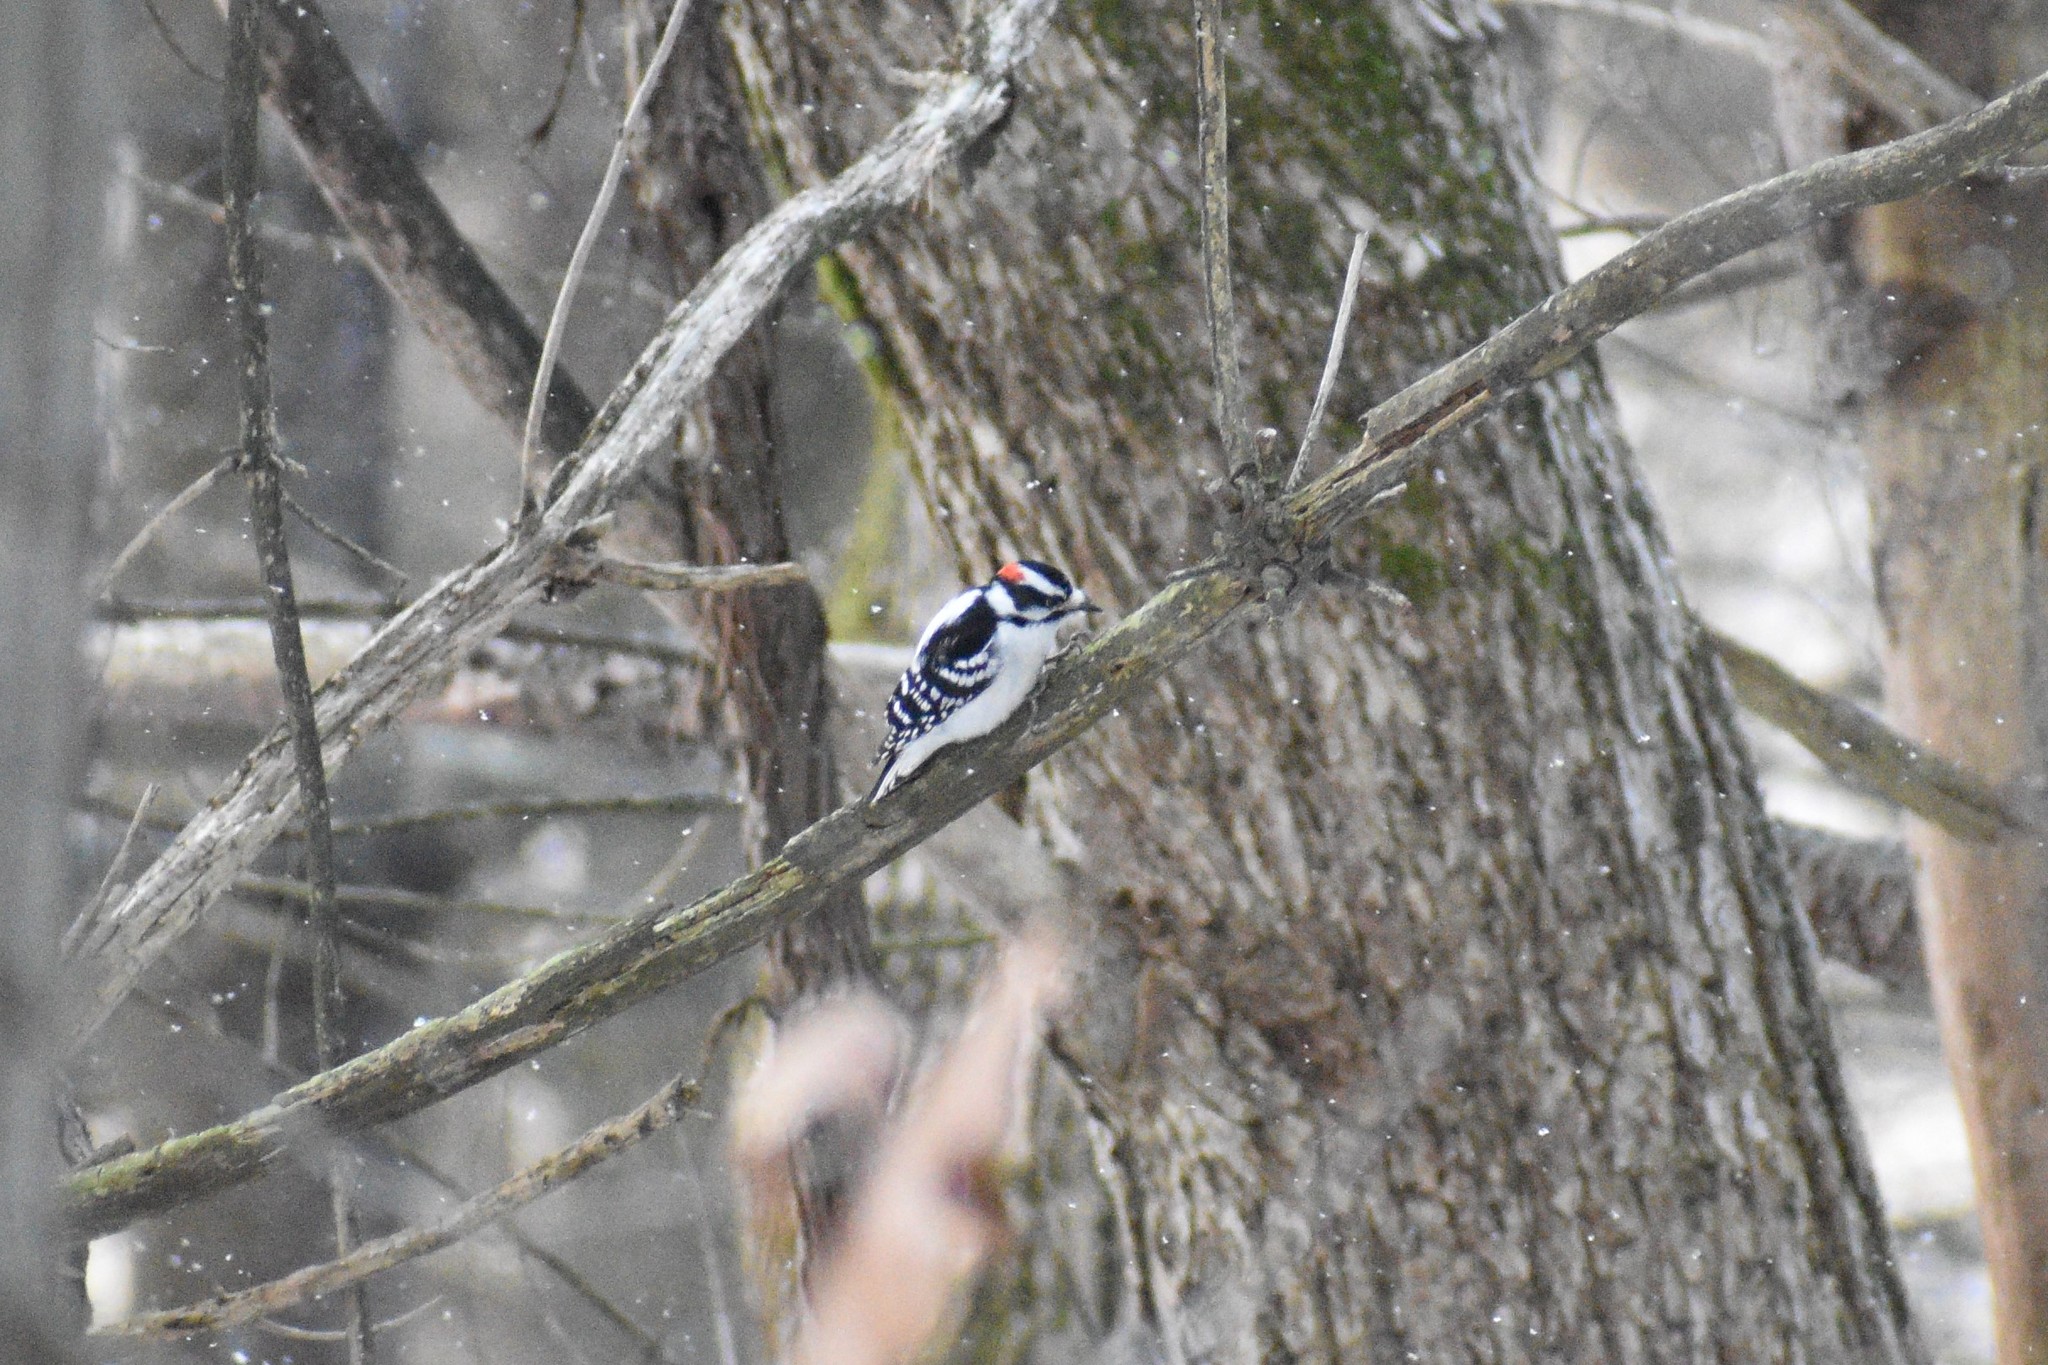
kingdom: Animalia
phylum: Chordata
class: Aves
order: Piciformes
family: Picidae
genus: Dryobates
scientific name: Dryobates pubescens
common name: Downy woodpecker
